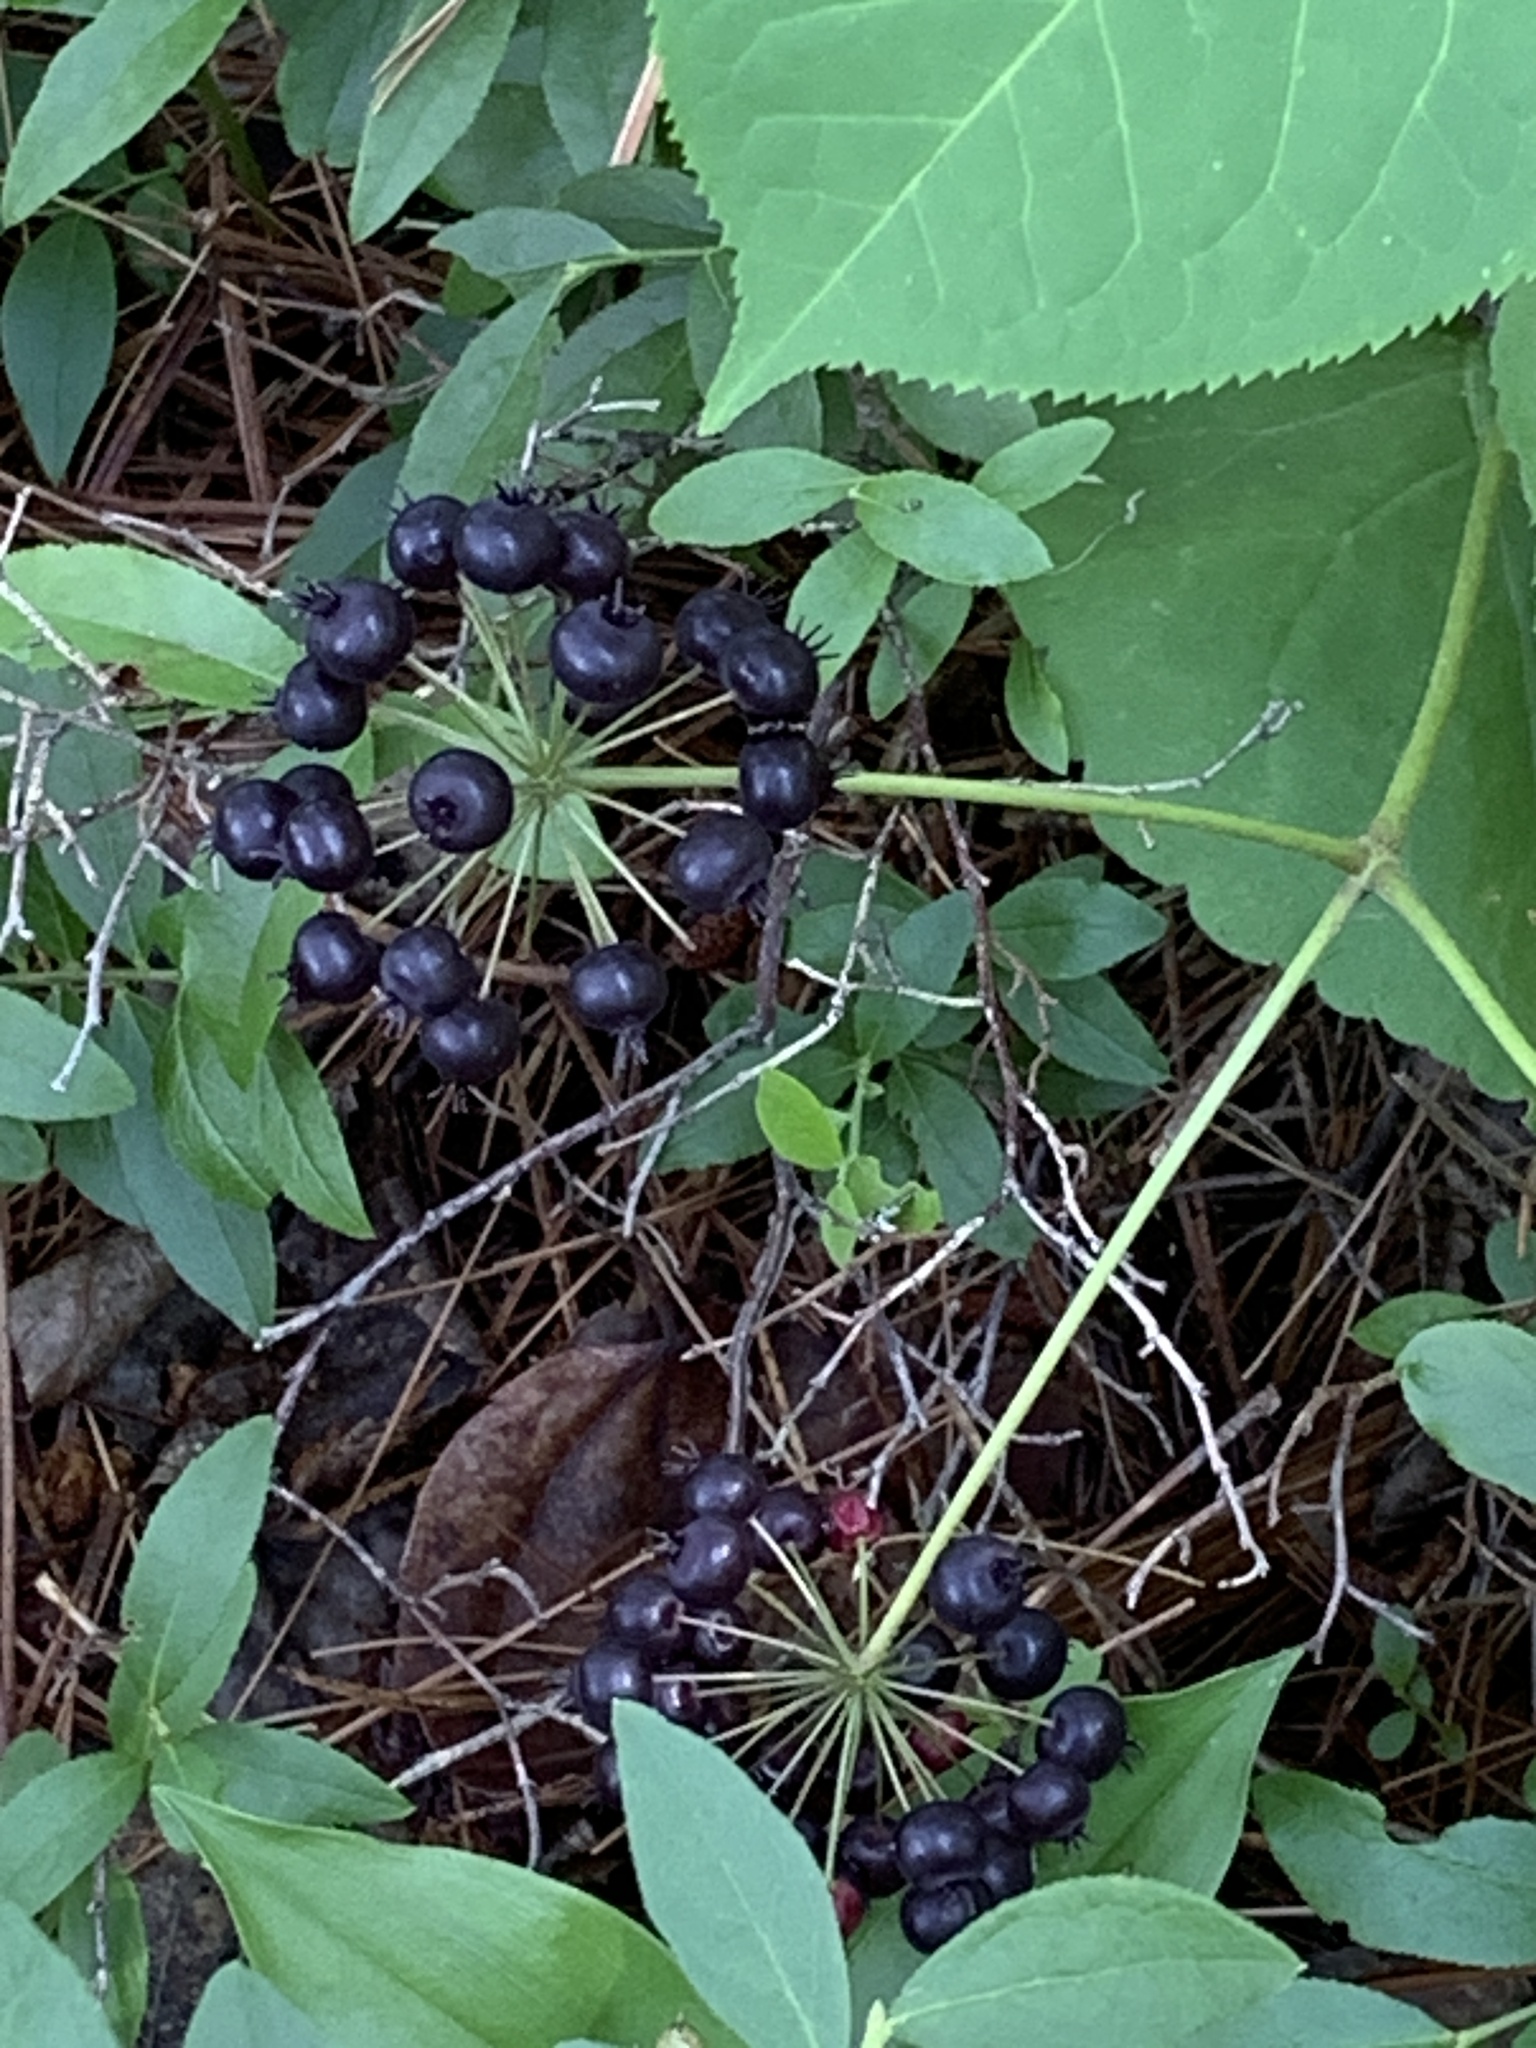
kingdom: Plantae
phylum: Tracheophyta
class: Magnoliopsida
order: Apiales
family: Araliaceae
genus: Aralia
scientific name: Aralia nudicaulis
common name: Wild sarsaparilla
